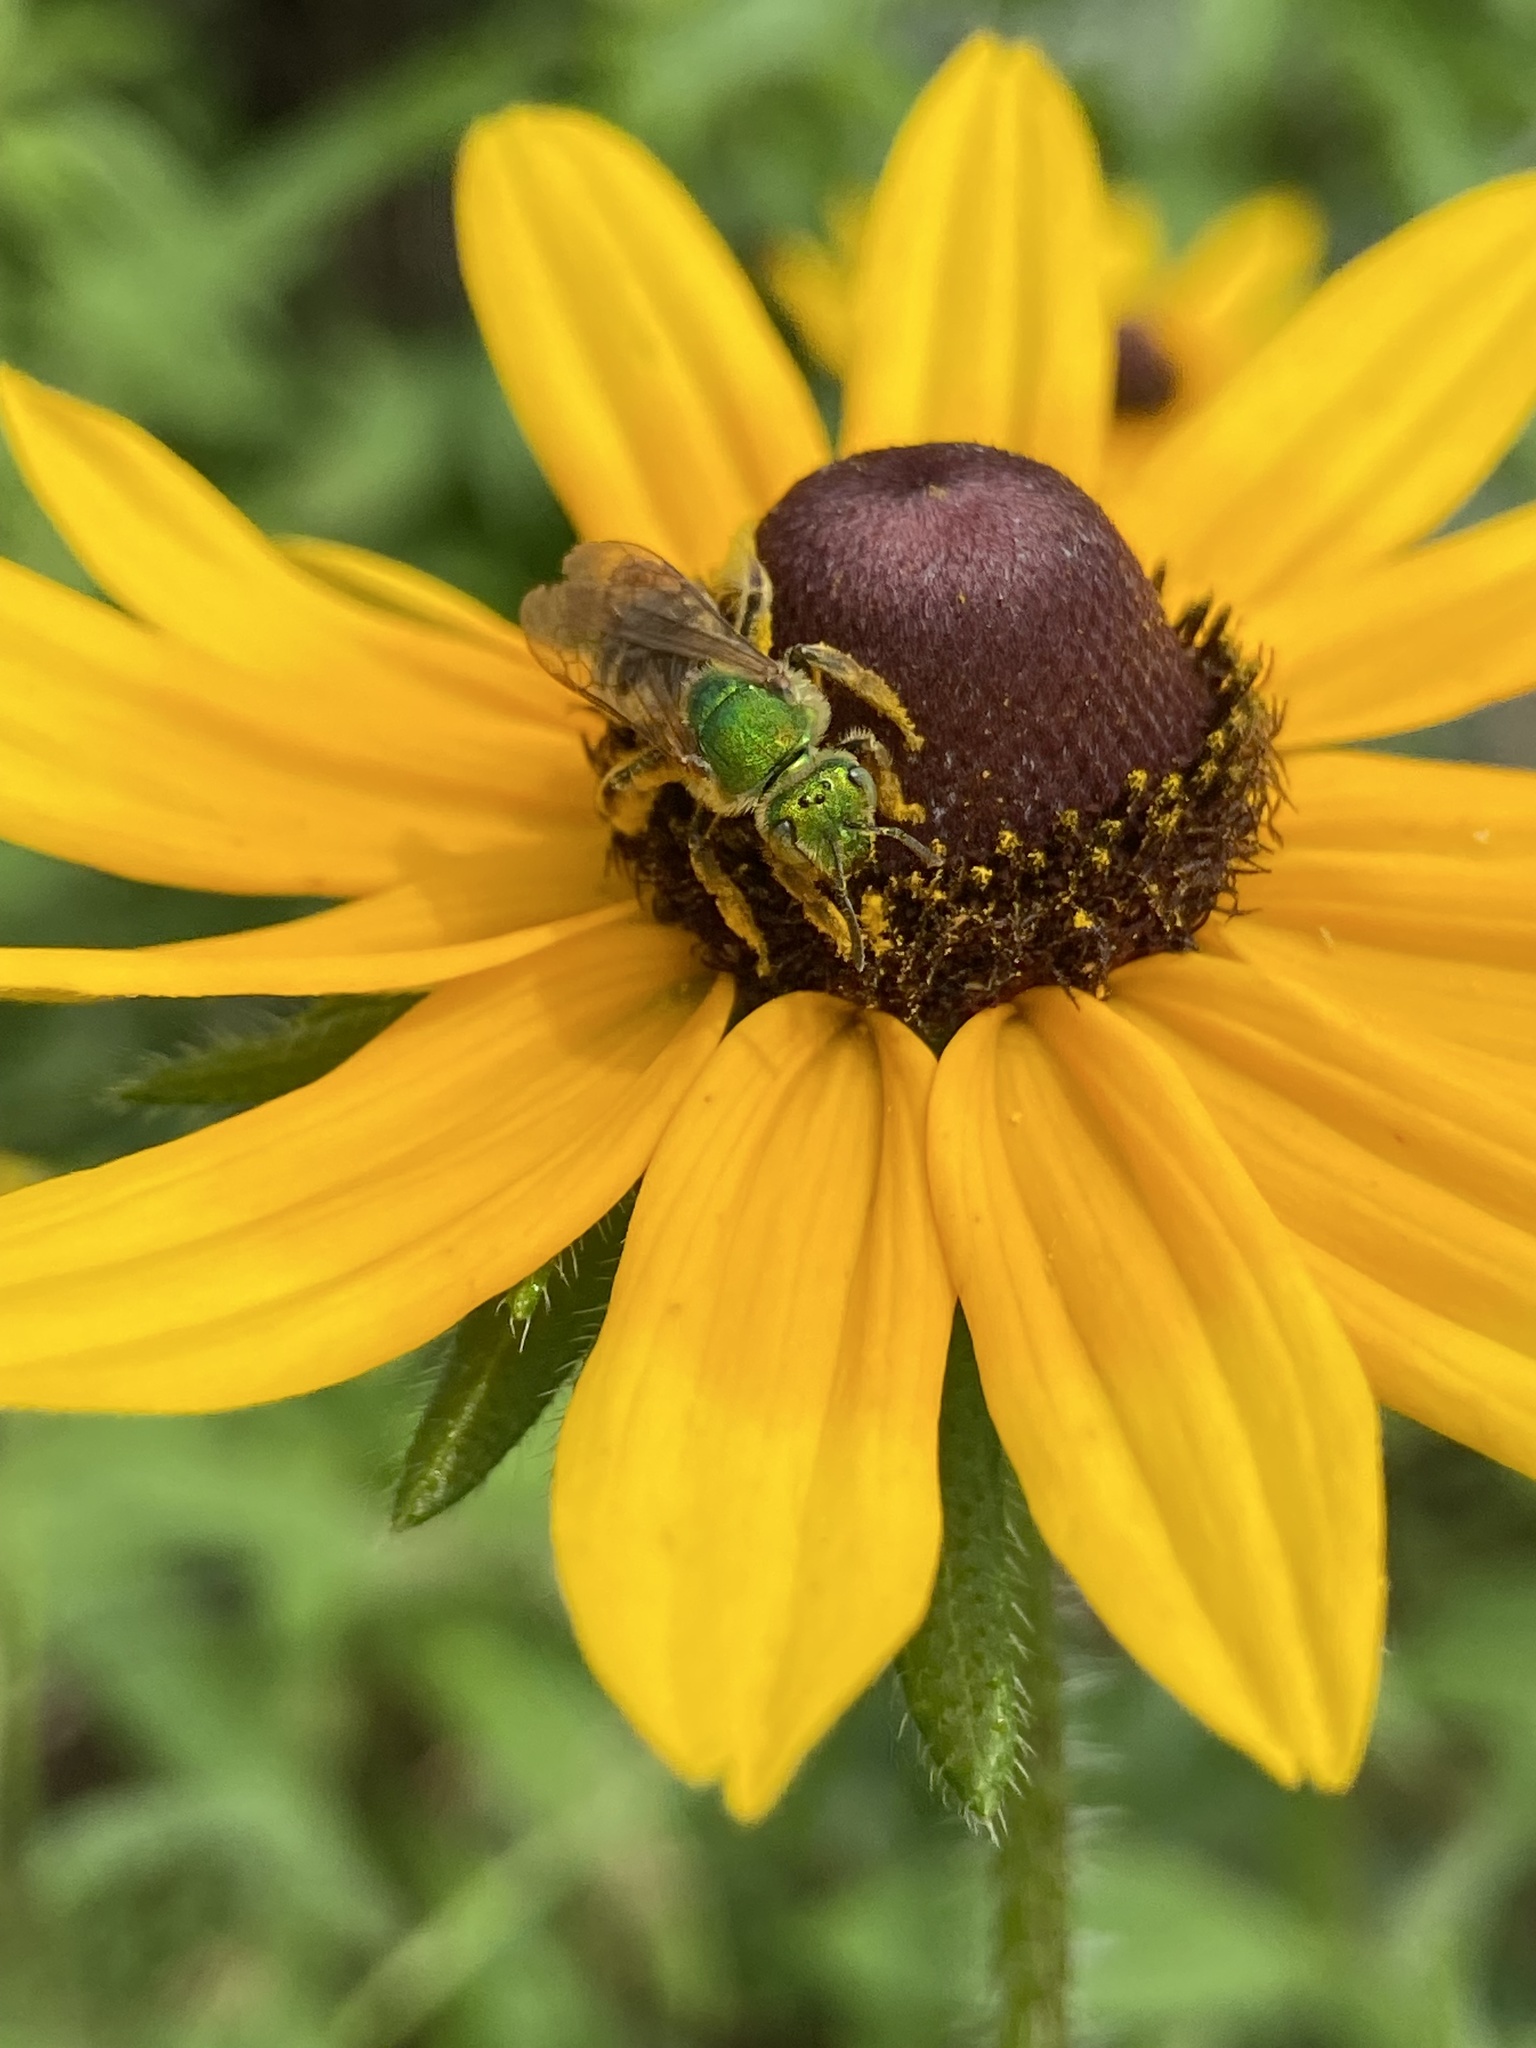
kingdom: Animalia
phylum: Arthropoda
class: Insecta
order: Hymenoptera
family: Halictidae
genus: Agapostemon
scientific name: Agapostemon virescens
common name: Bicolored striped sweat bee
